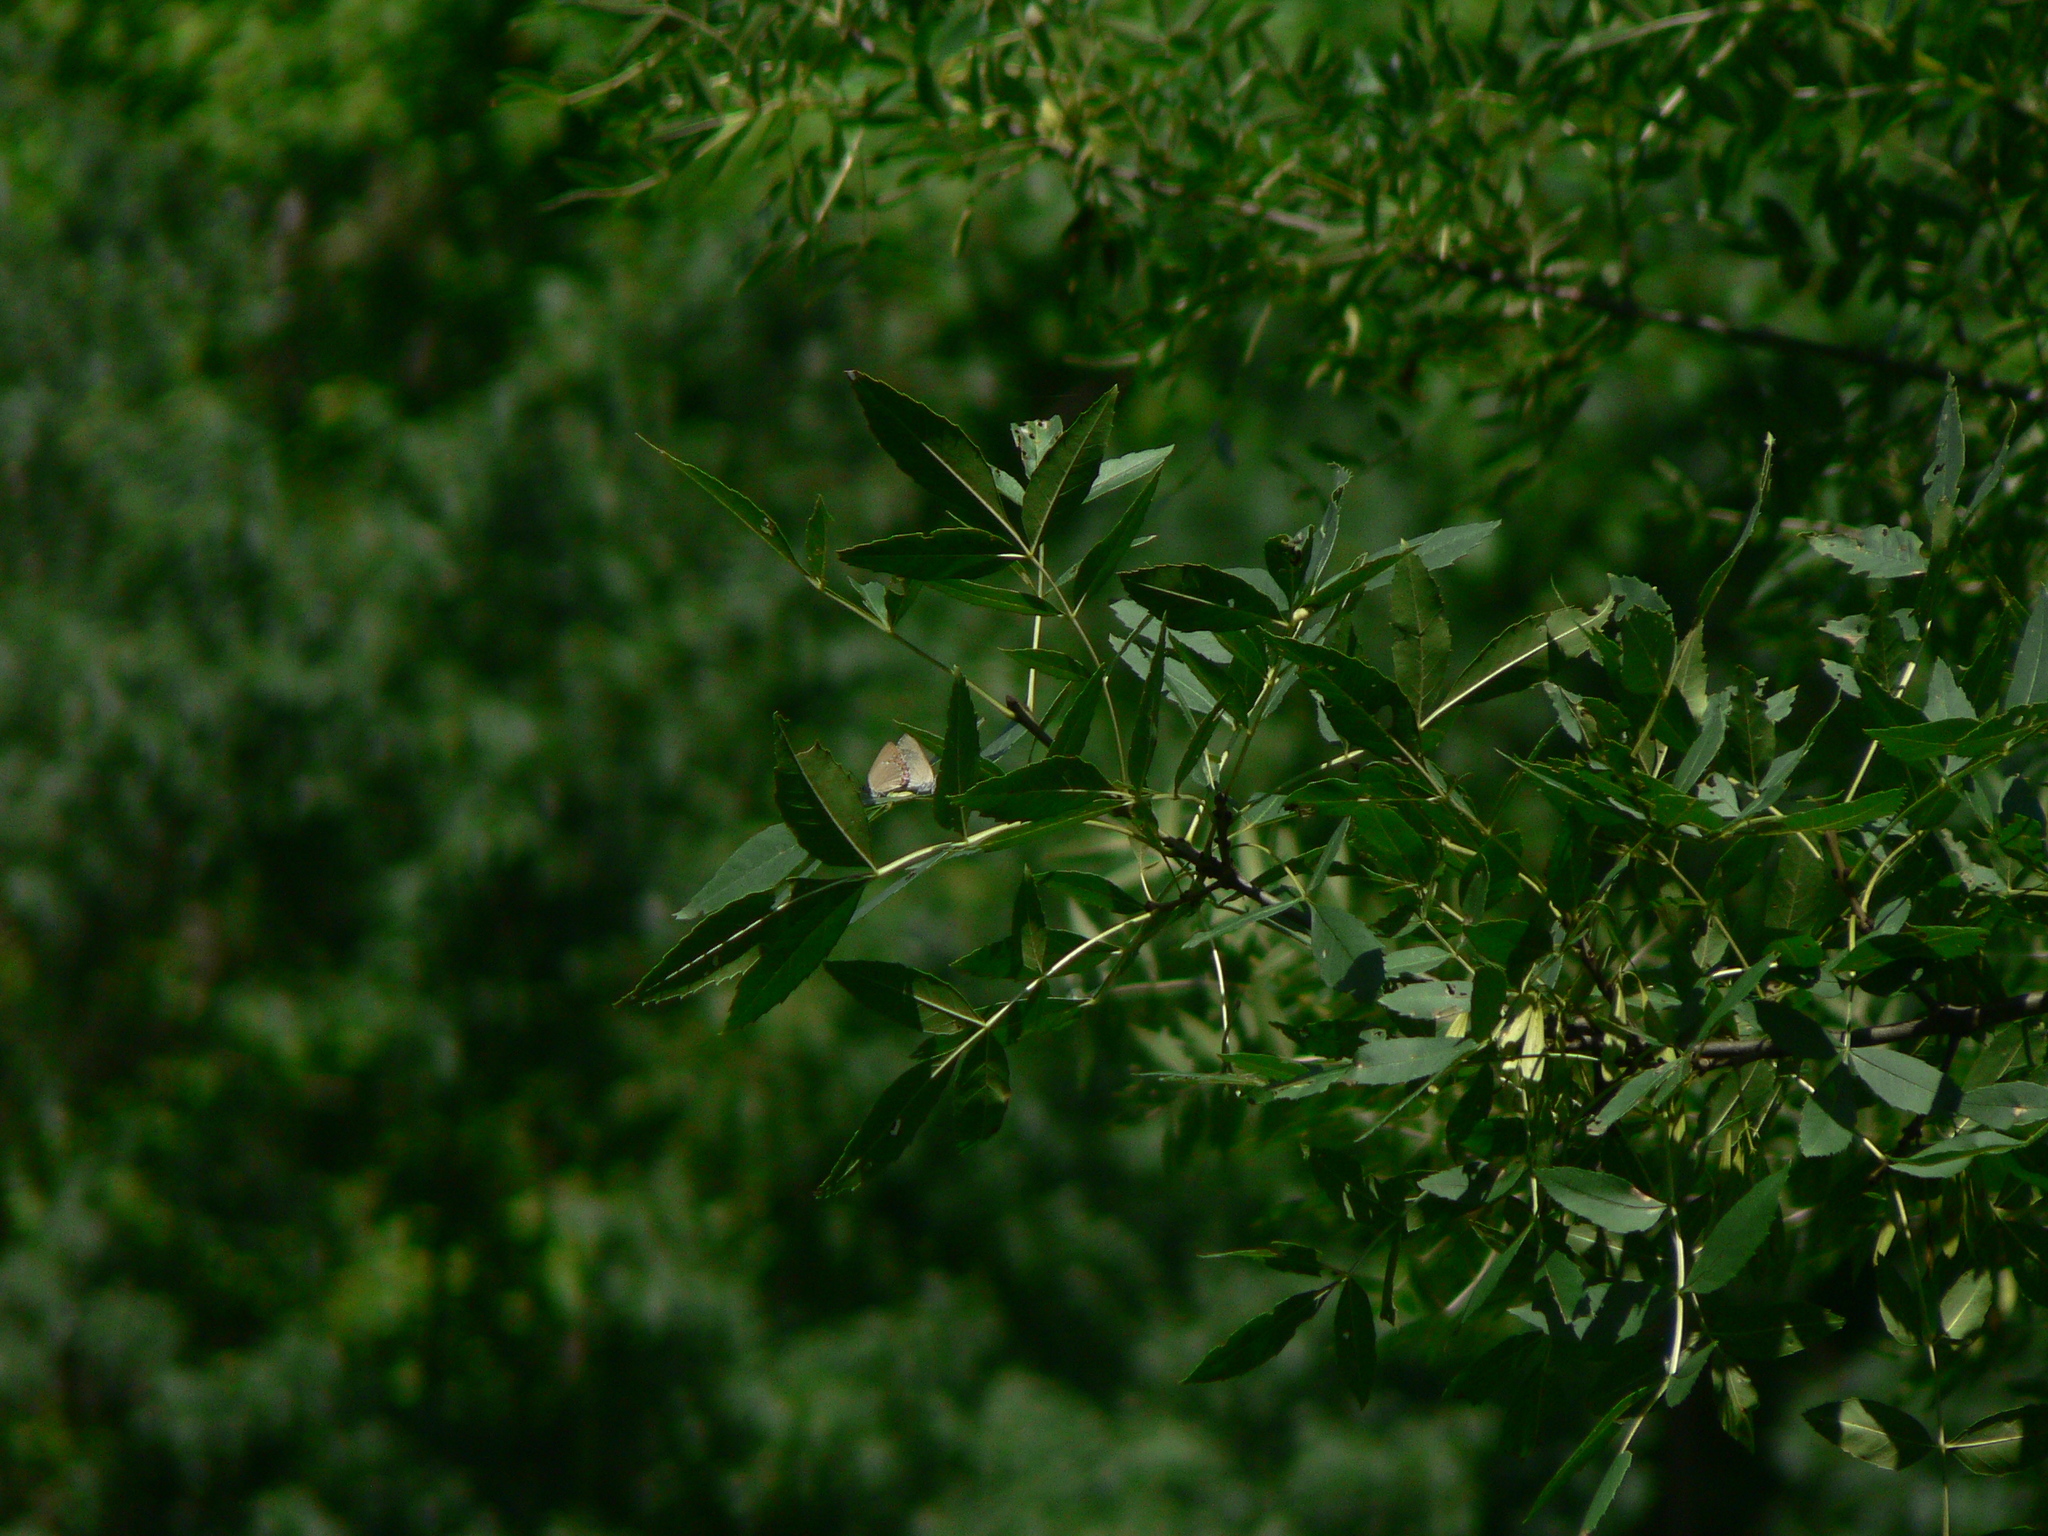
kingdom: Animalia
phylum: Arthropoda
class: Insecta
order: Lepidoptera
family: Lycaenidae
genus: Laeosopis
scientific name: Laeosopis roboris
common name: Spanish purple hairstreak
